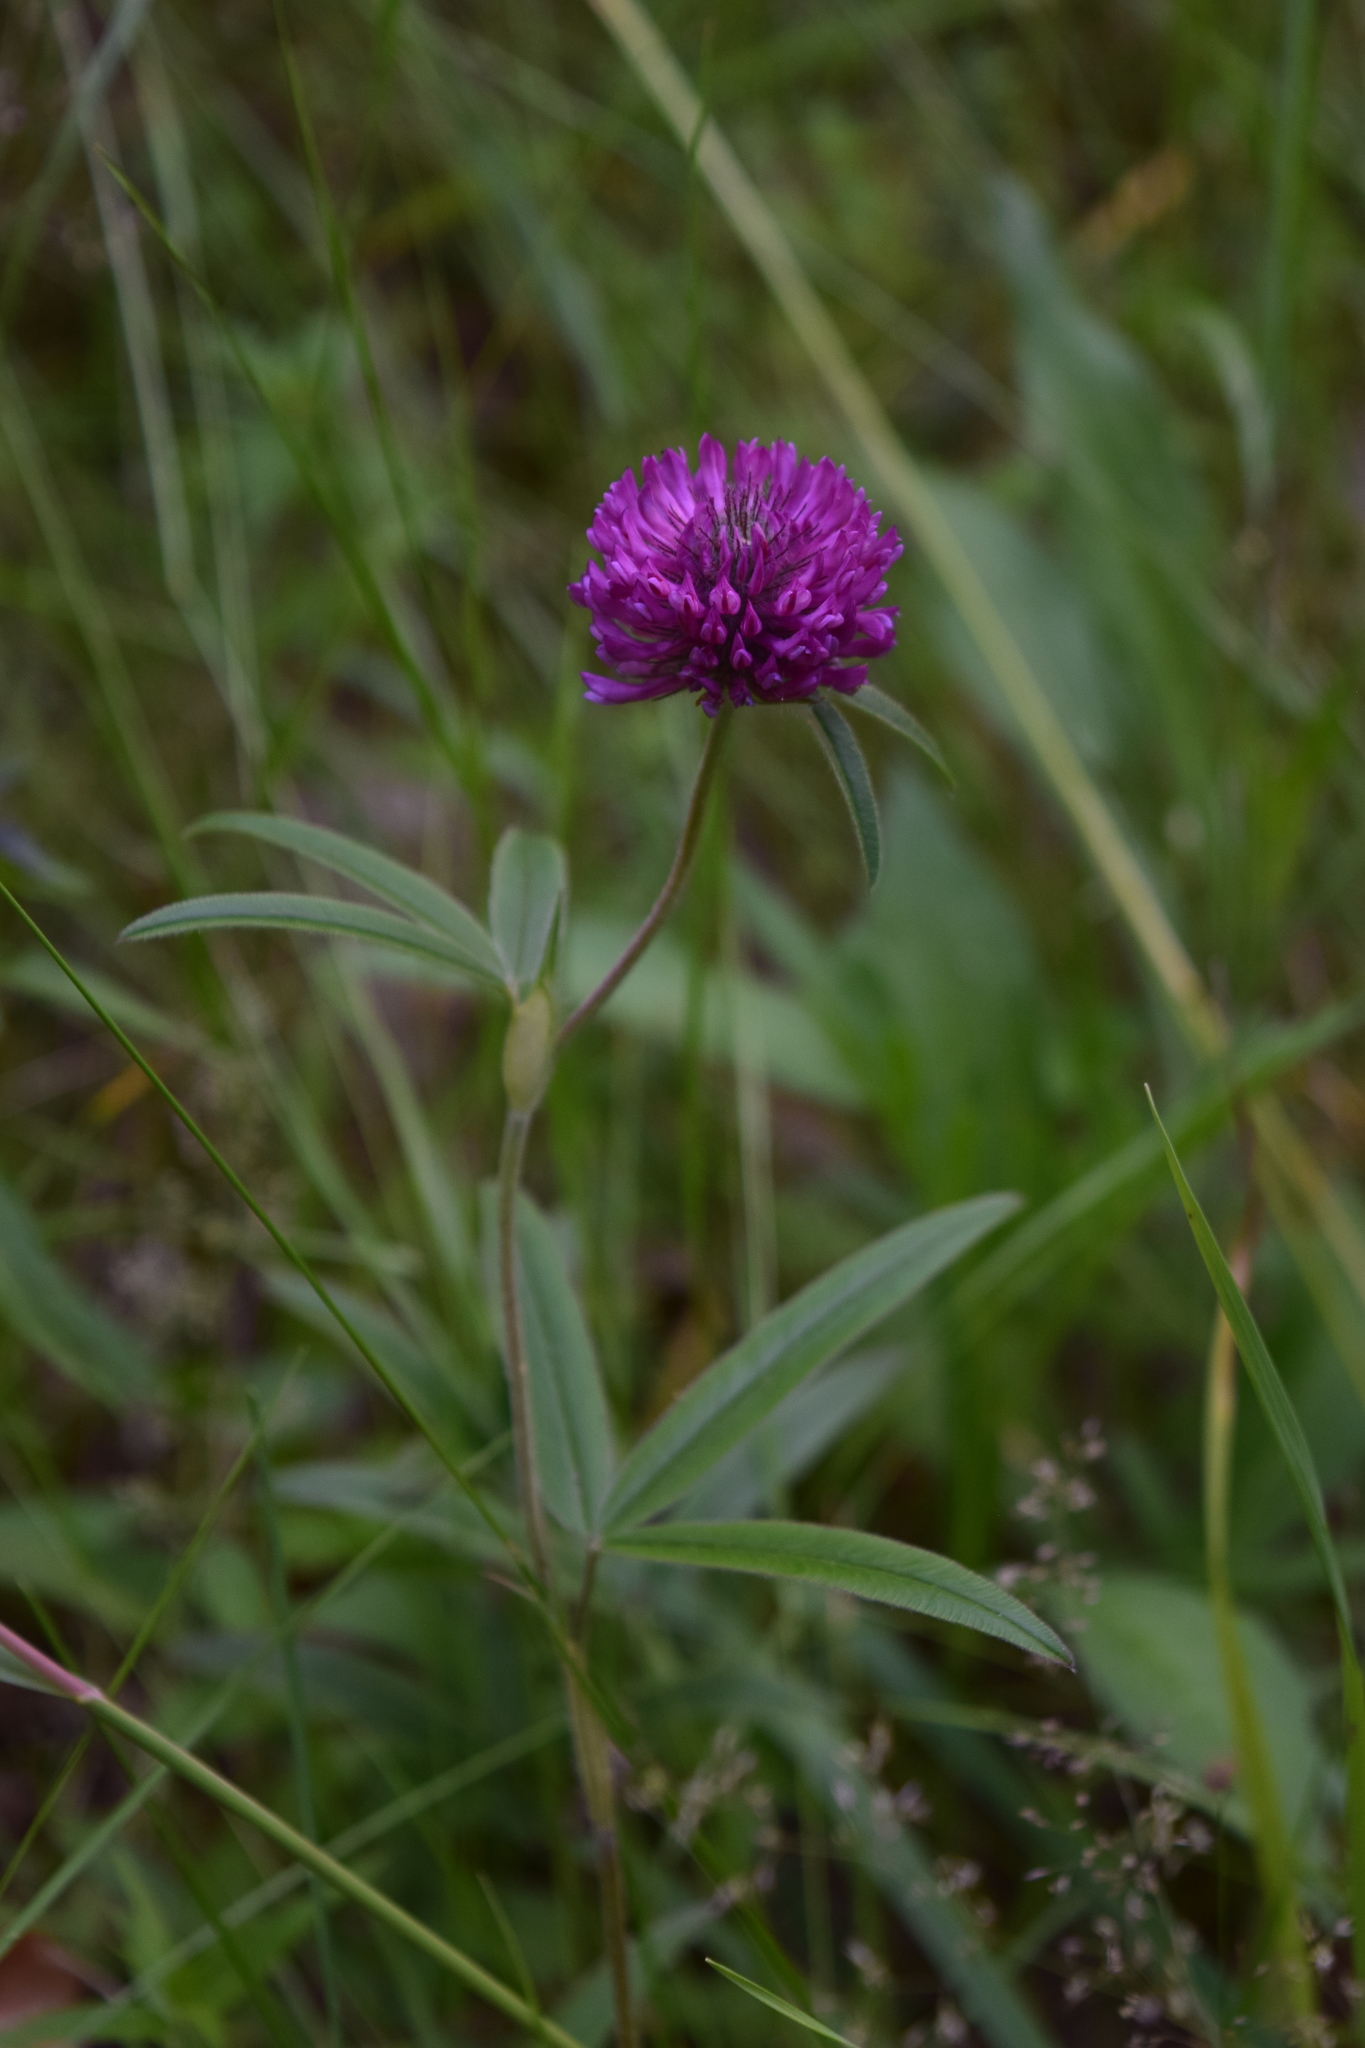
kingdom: Plantae
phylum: Tracheophyta
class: Magnoliopsida
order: Fabales
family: Fabaceae
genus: Trifolium
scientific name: Trifolium alpestre
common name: Owl-head clover
